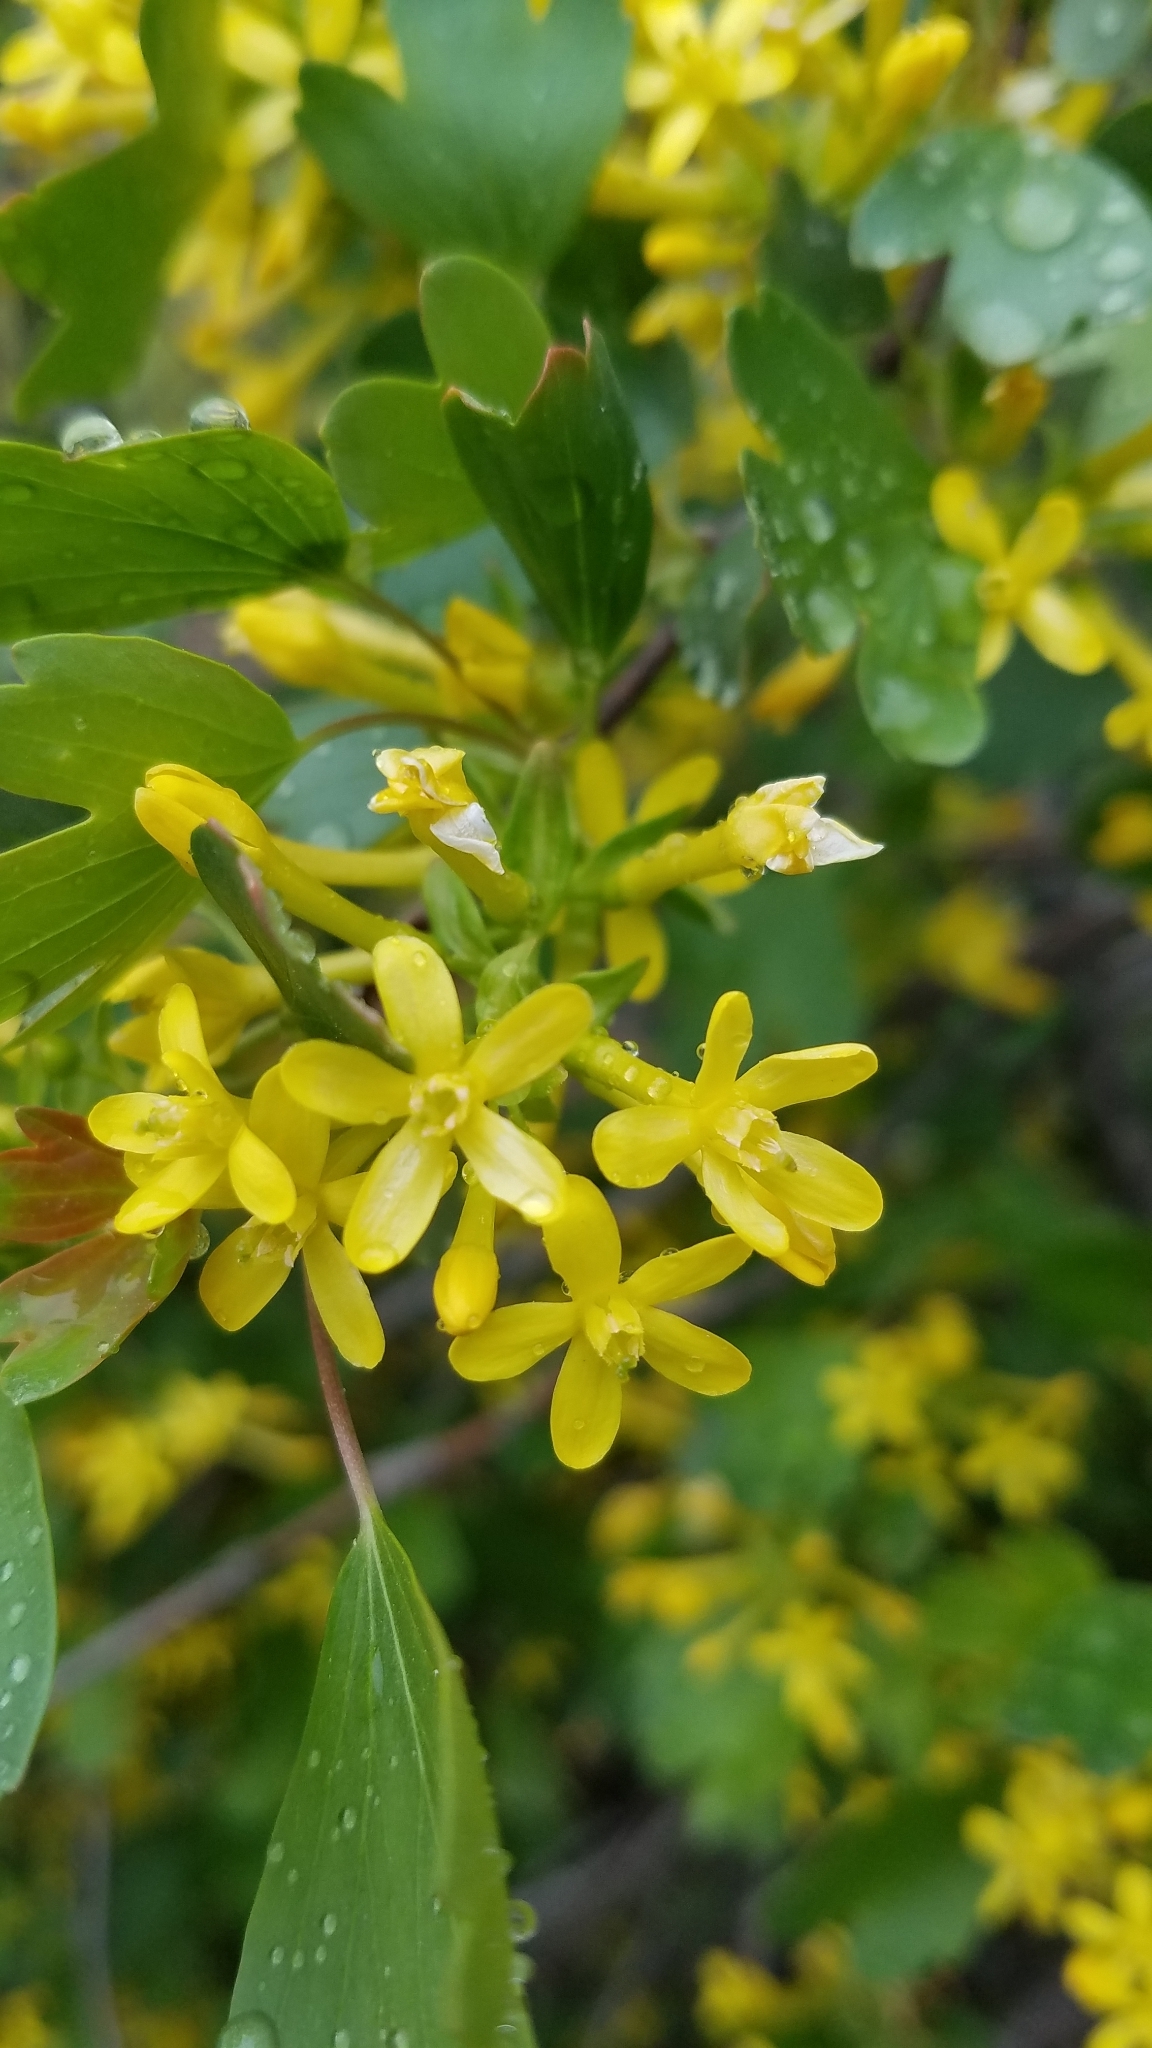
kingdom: Plantae
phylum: Tracheophyta
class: Magnoliopsida
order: Saxifragales
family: Grossulariaceae
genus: Ribes
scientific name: Ribes aureum
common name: Golden currant
